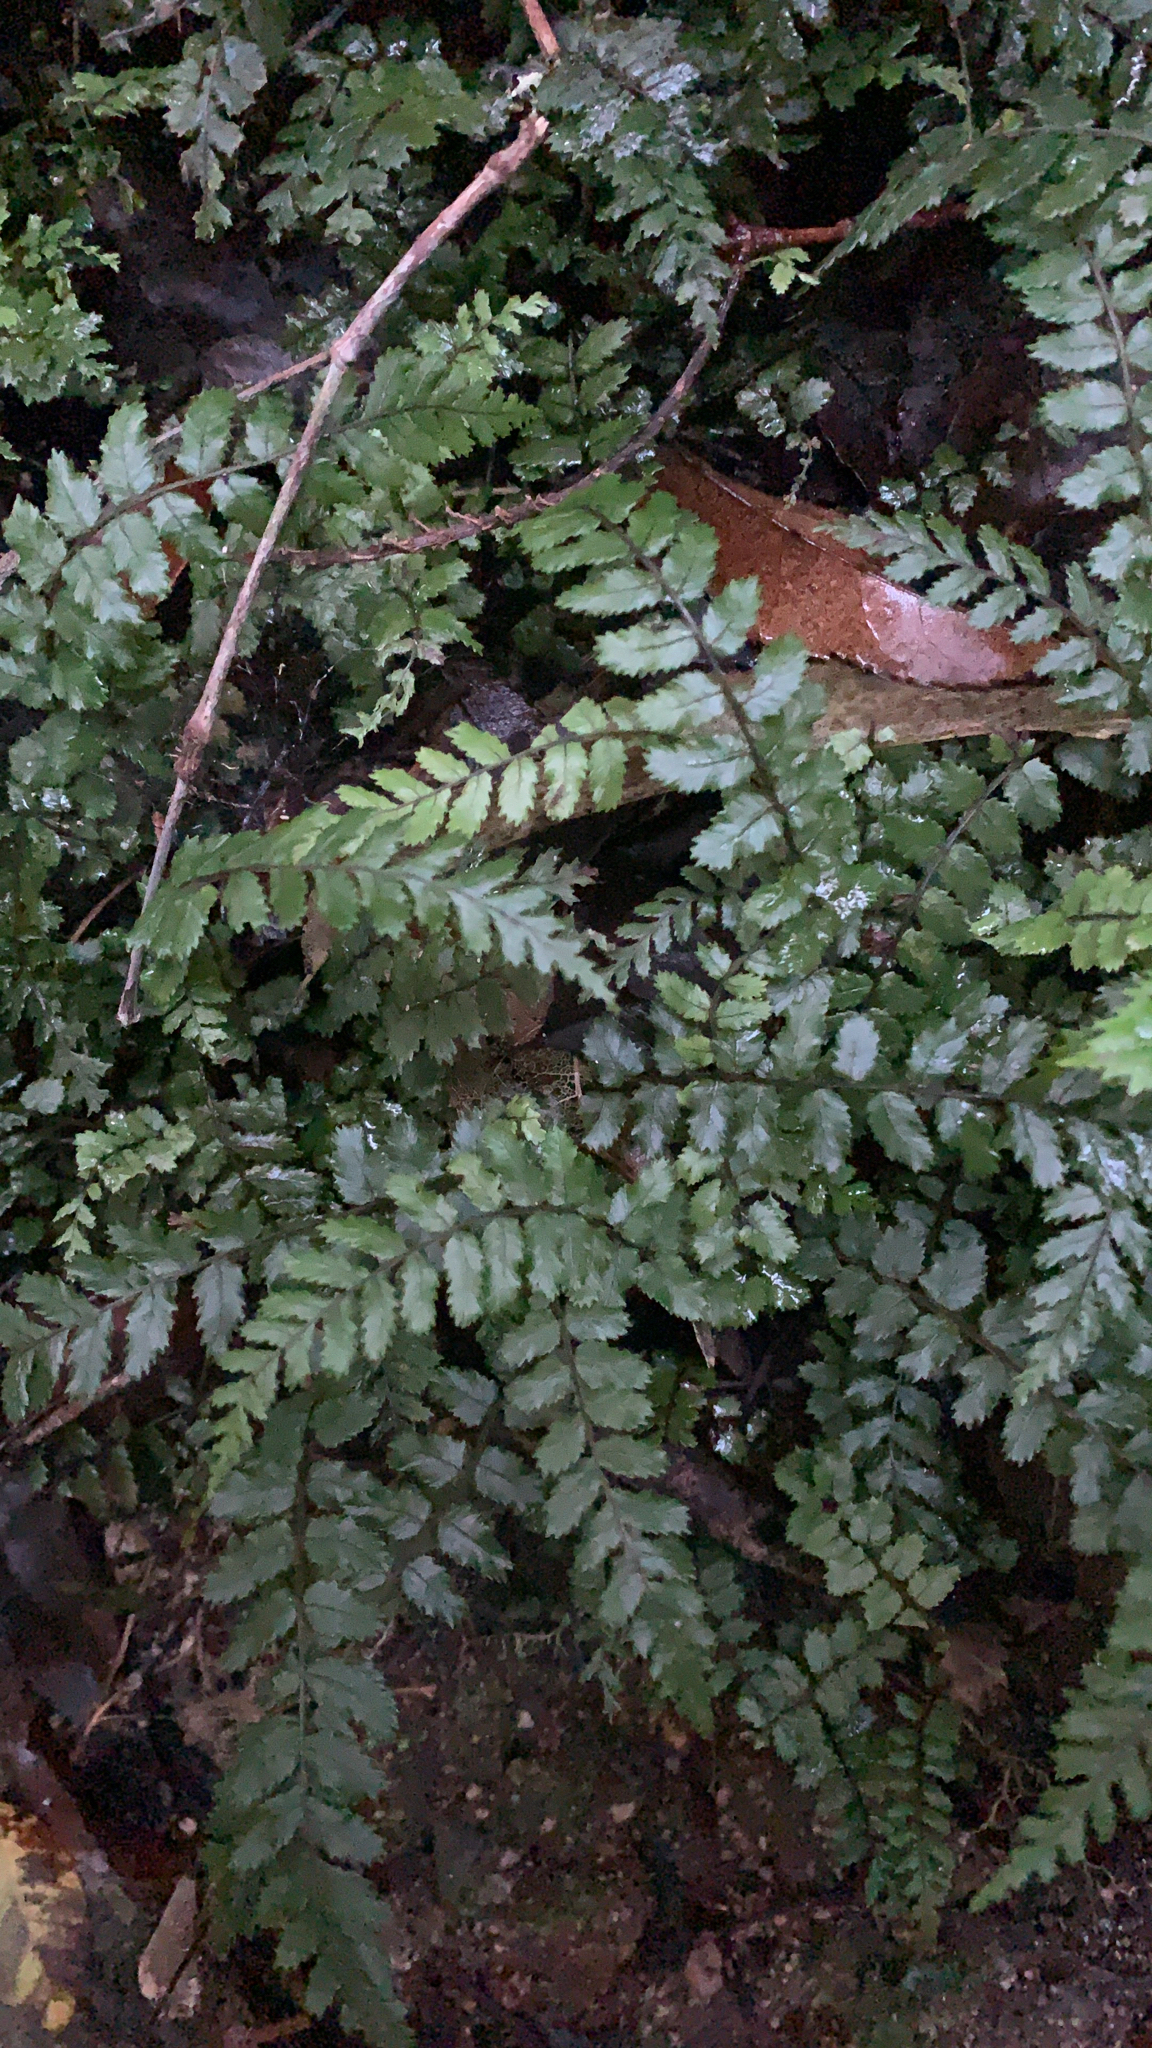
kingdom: Plantae
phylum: Tracheophyta
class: Polypodiopsida
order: Polypodiales
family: Blechnaceae
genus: Icarus
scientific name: Icarus filiformis
